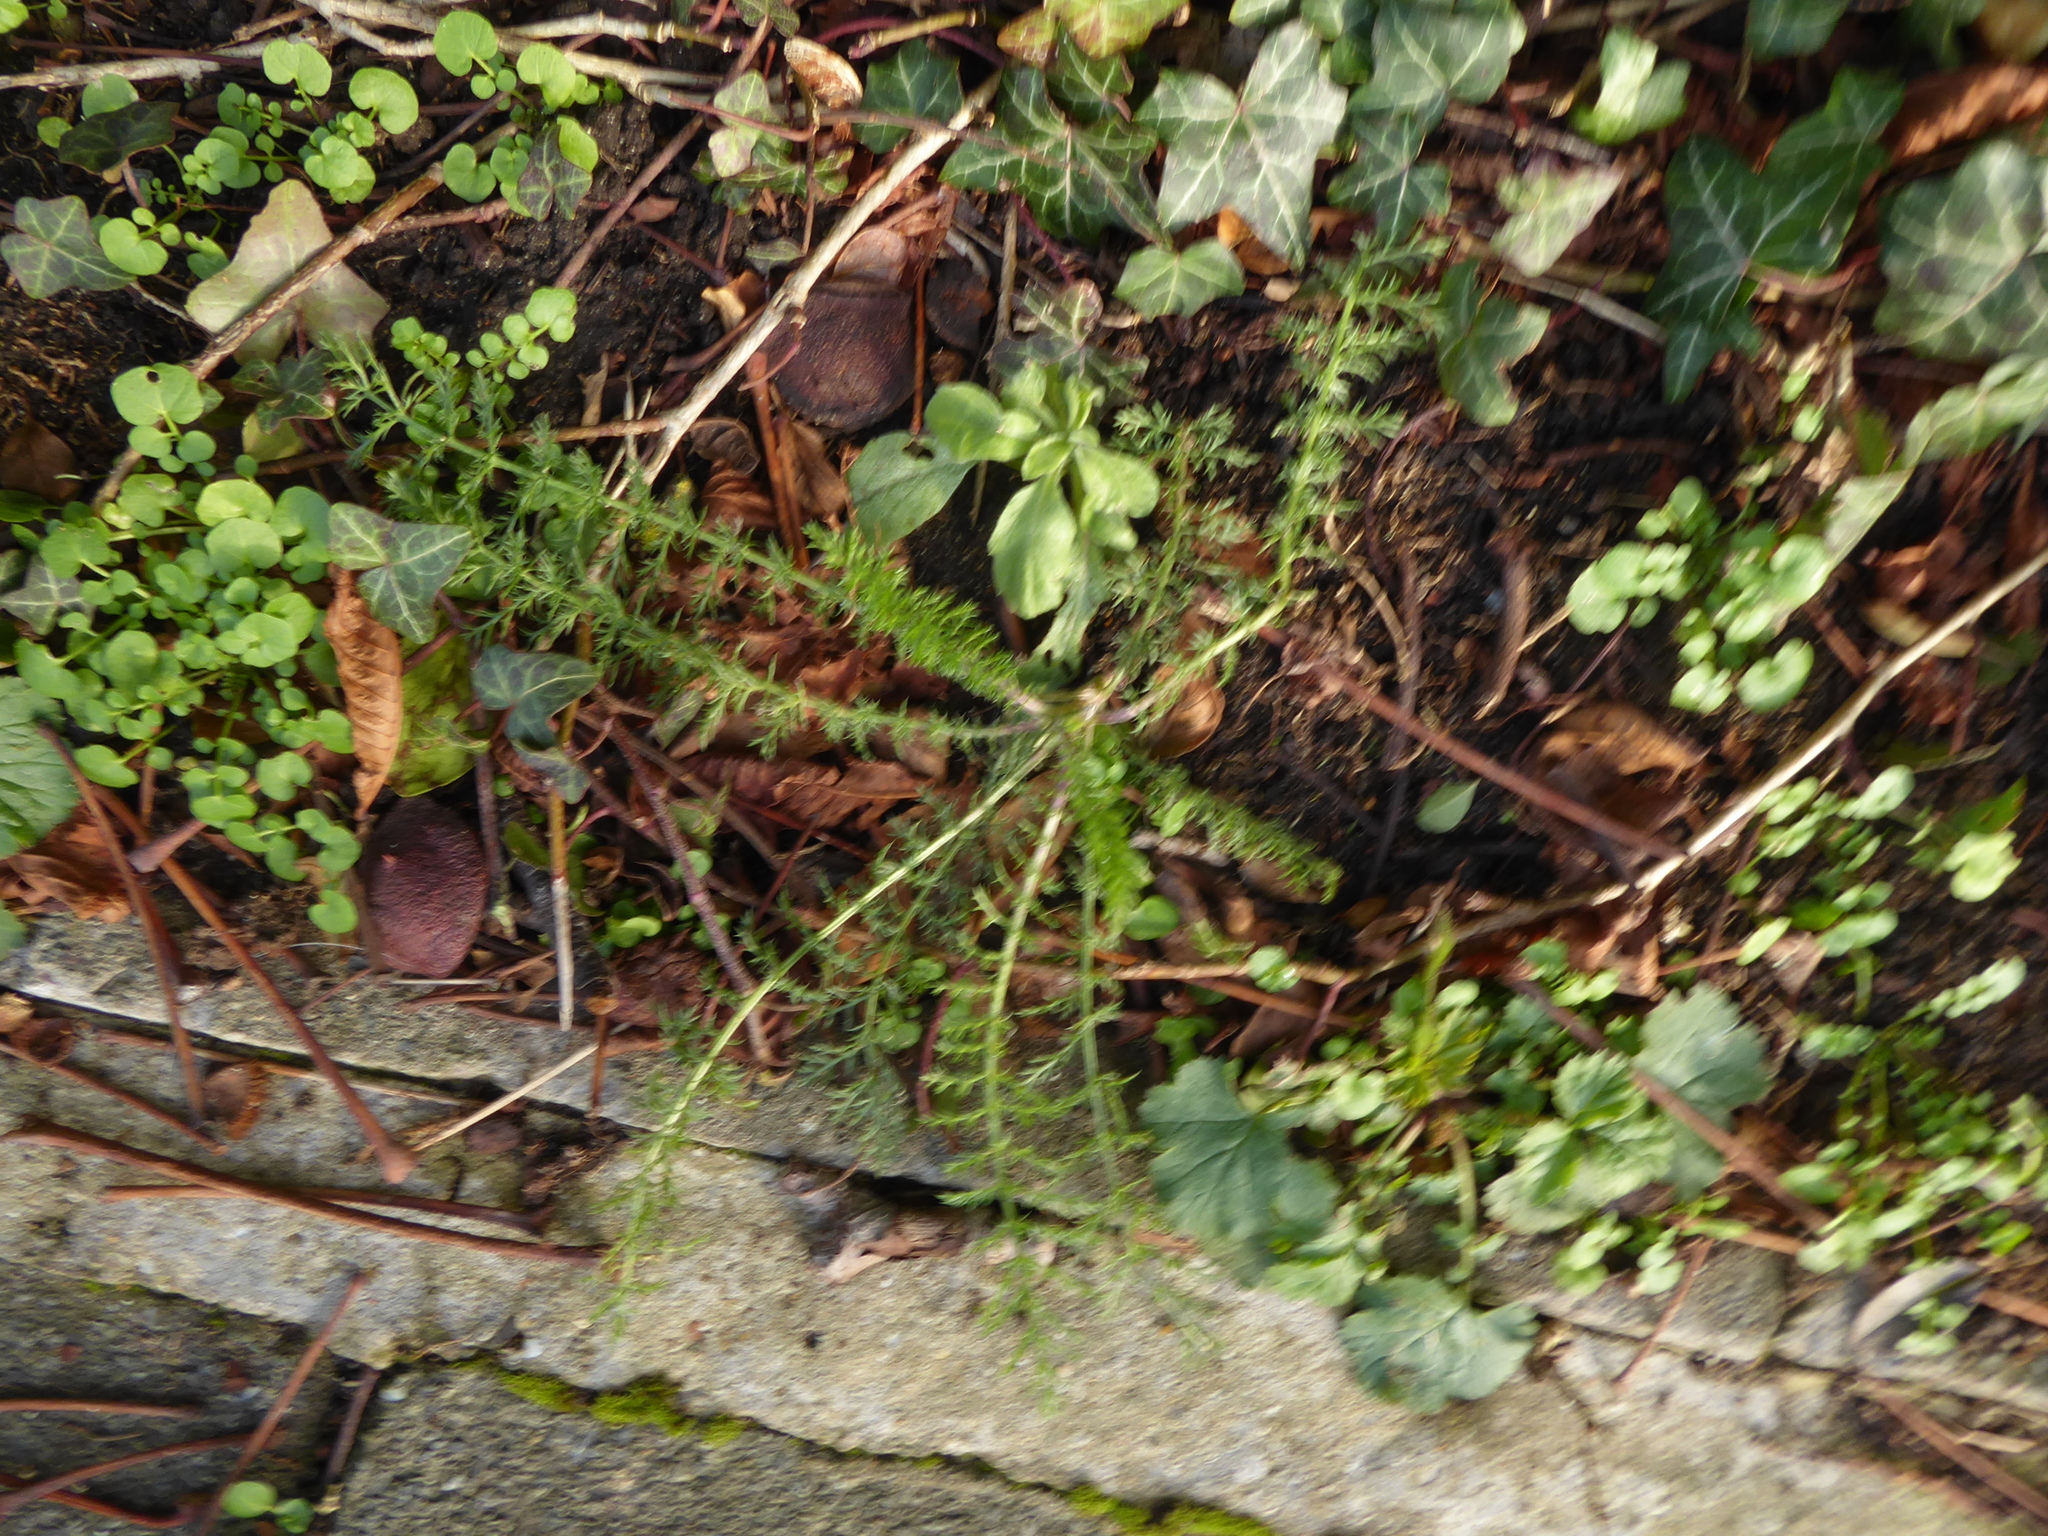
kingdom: Plantae
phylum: Tracheophyta
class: Magnoliopsida
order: Asterales
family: Asteraceae
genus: Achillea
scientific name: Achillea millefolium
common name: Yarrow
